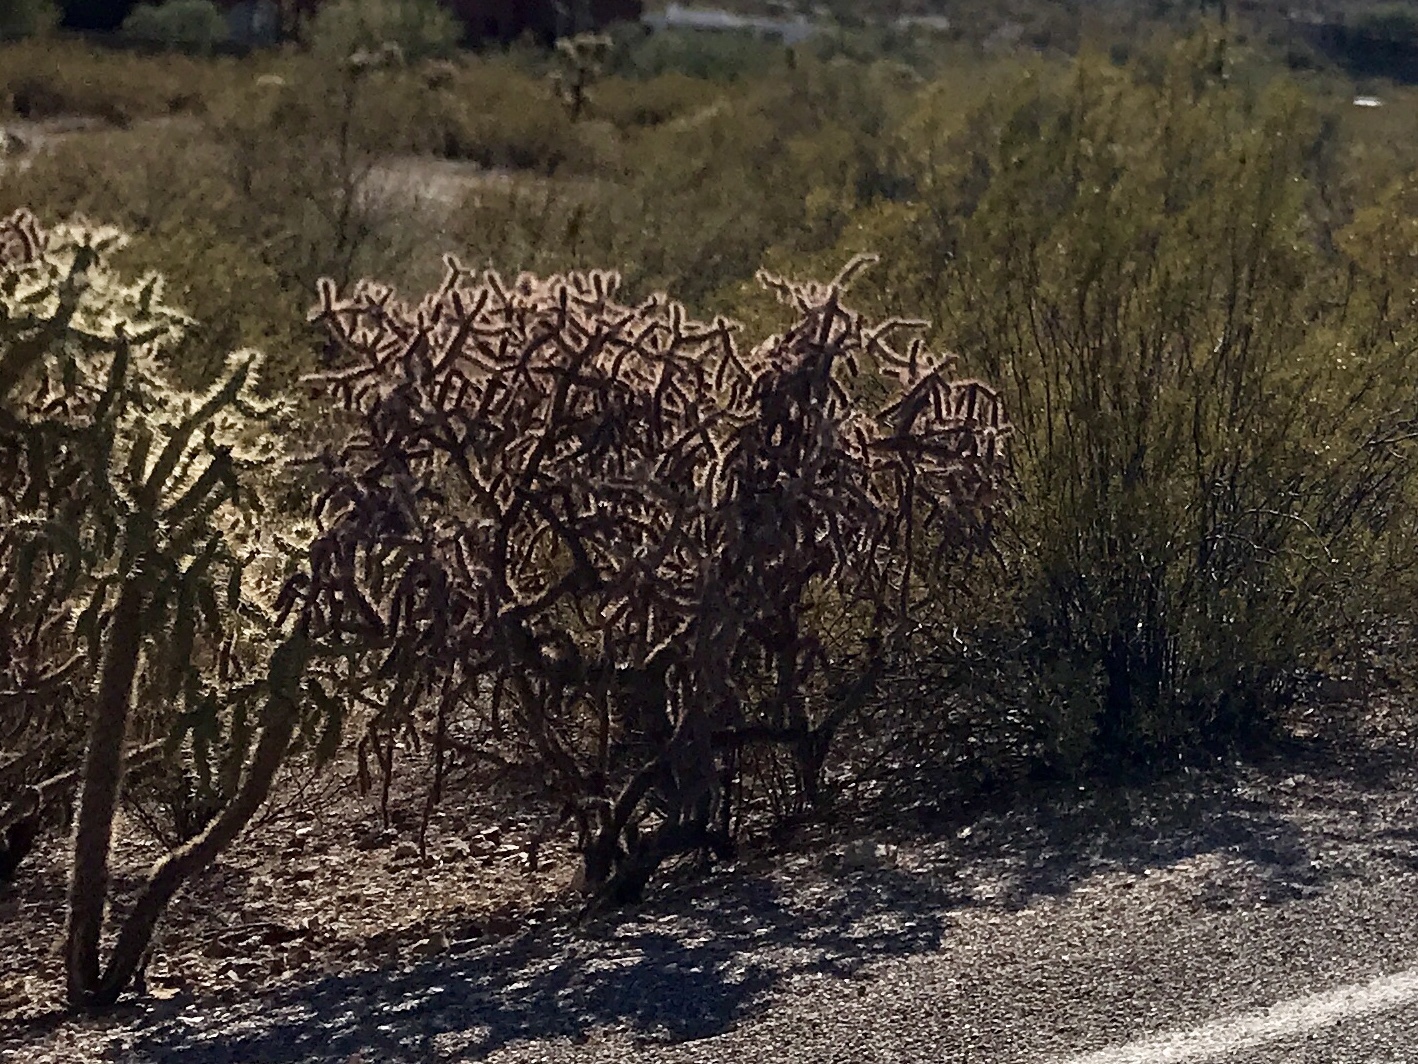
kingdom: Plantae
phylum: Tracheophyta
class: Magnoliopsida
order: Caryophyllales
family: Cactaceae
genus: Cylindropuntia
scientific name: Cylindropuntia thurberi
